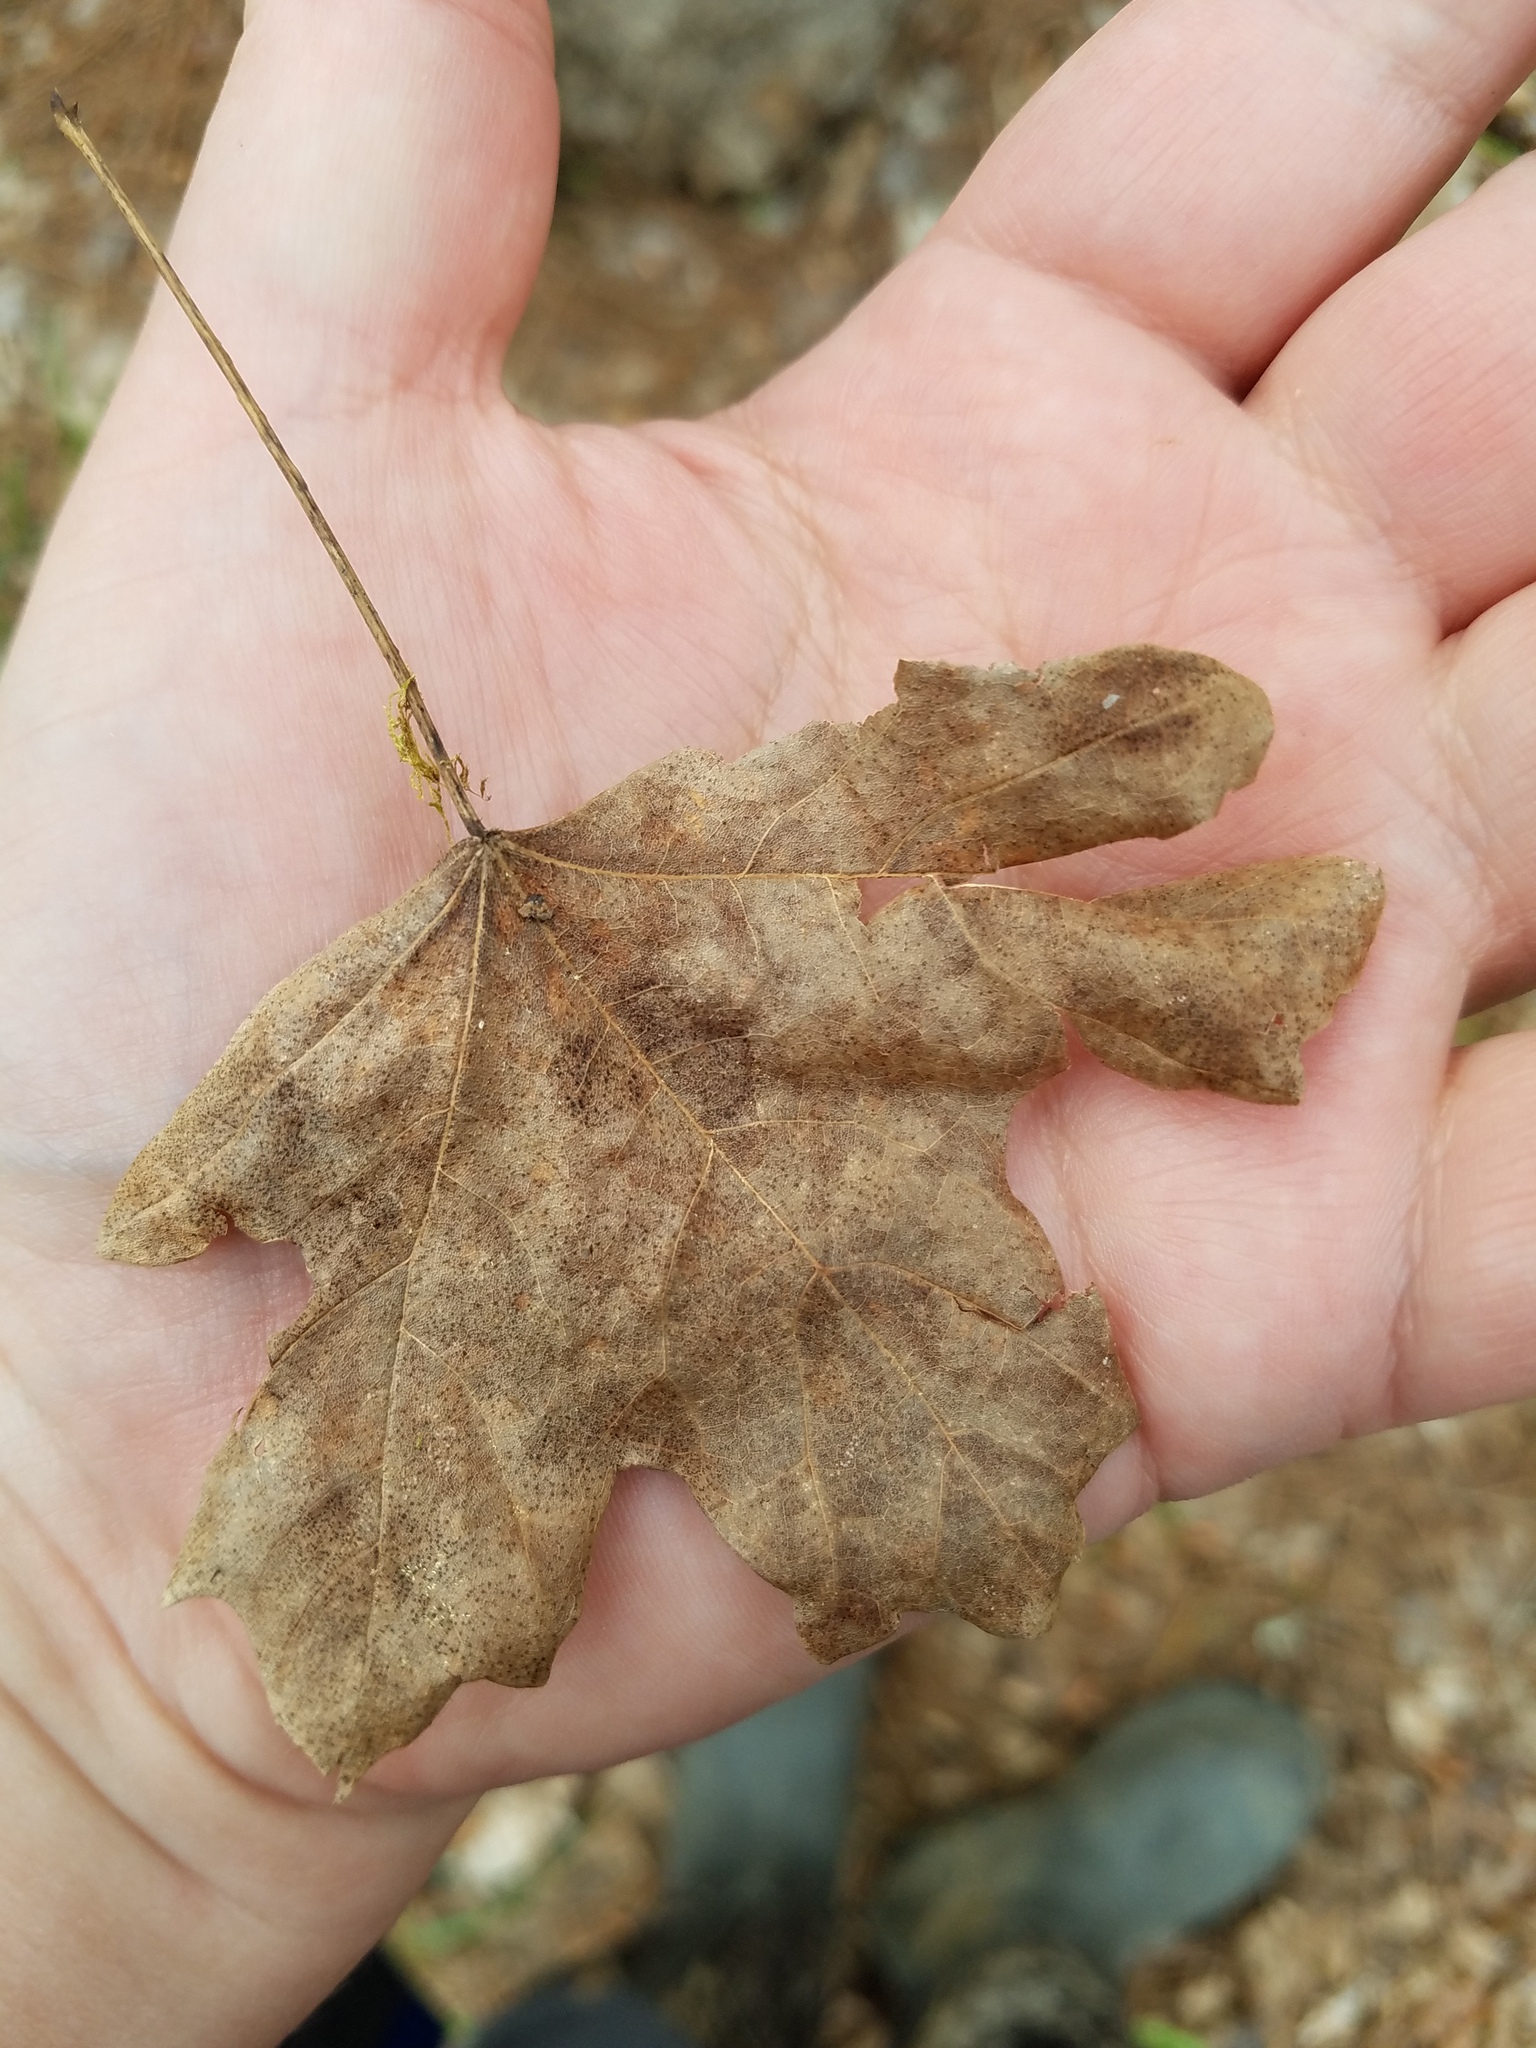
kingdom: Plantae
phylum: Tracheophyta
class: Magnoliopsida
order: Sapindales
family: Sapindaceae
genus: Acer
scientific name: Acer leucoderme
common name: Chalk maple
